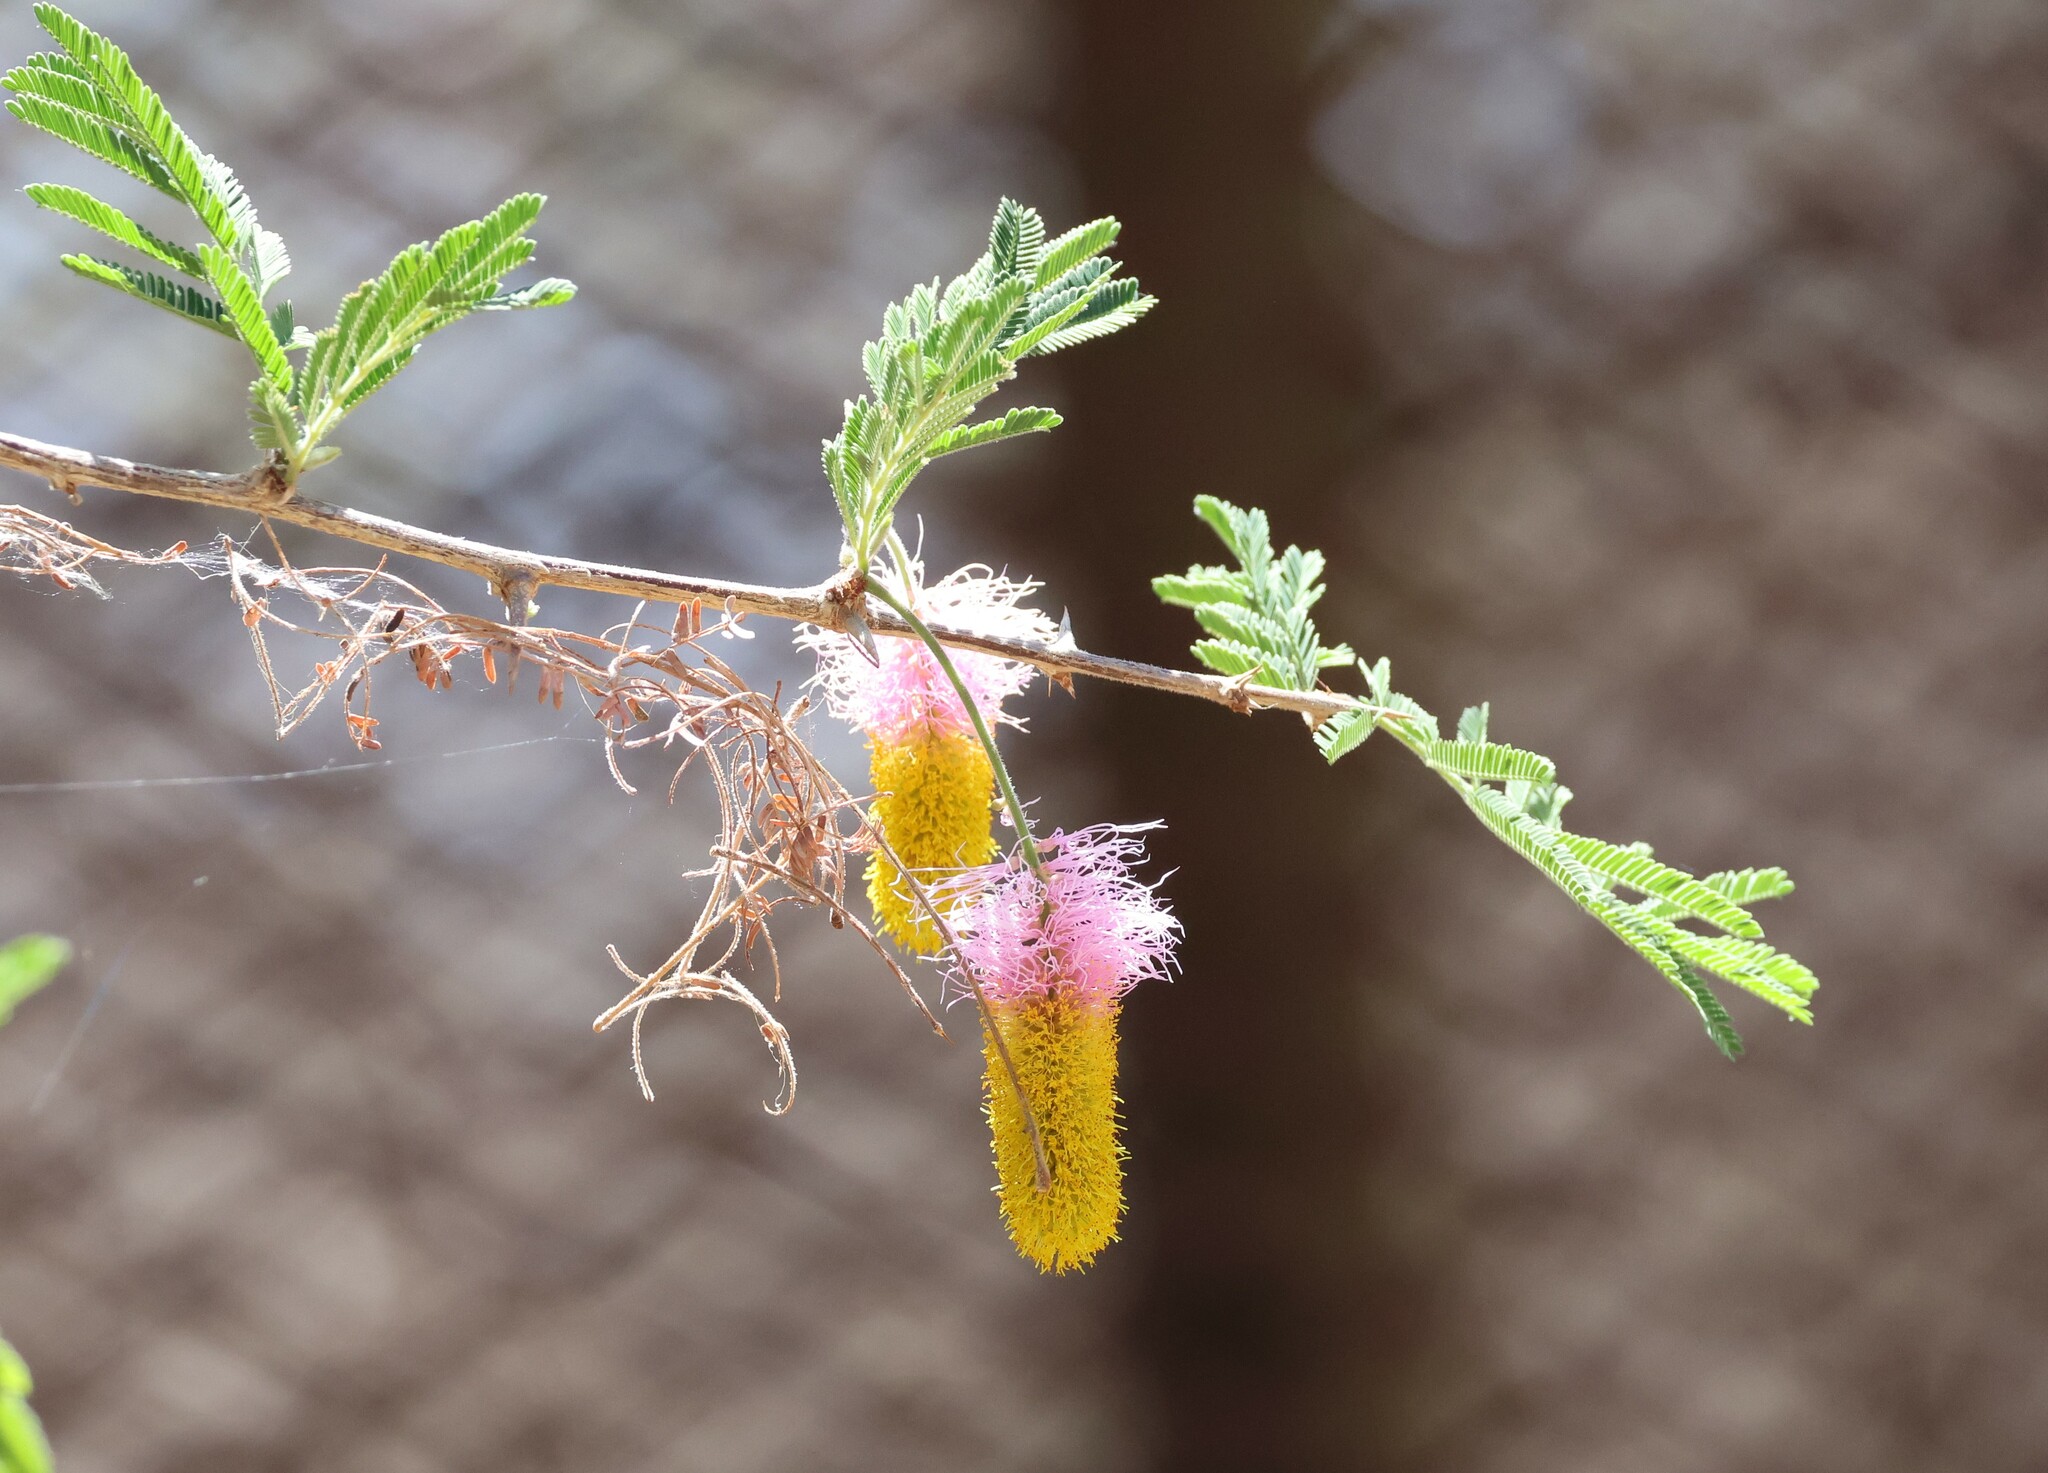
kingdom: Plantae
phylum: Tracheophyta
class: Magnoliopsida
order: Fabales
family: Fabaceae
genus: Dichrostachys
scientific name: Dichrostachys cinerea
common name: Sicklebush
